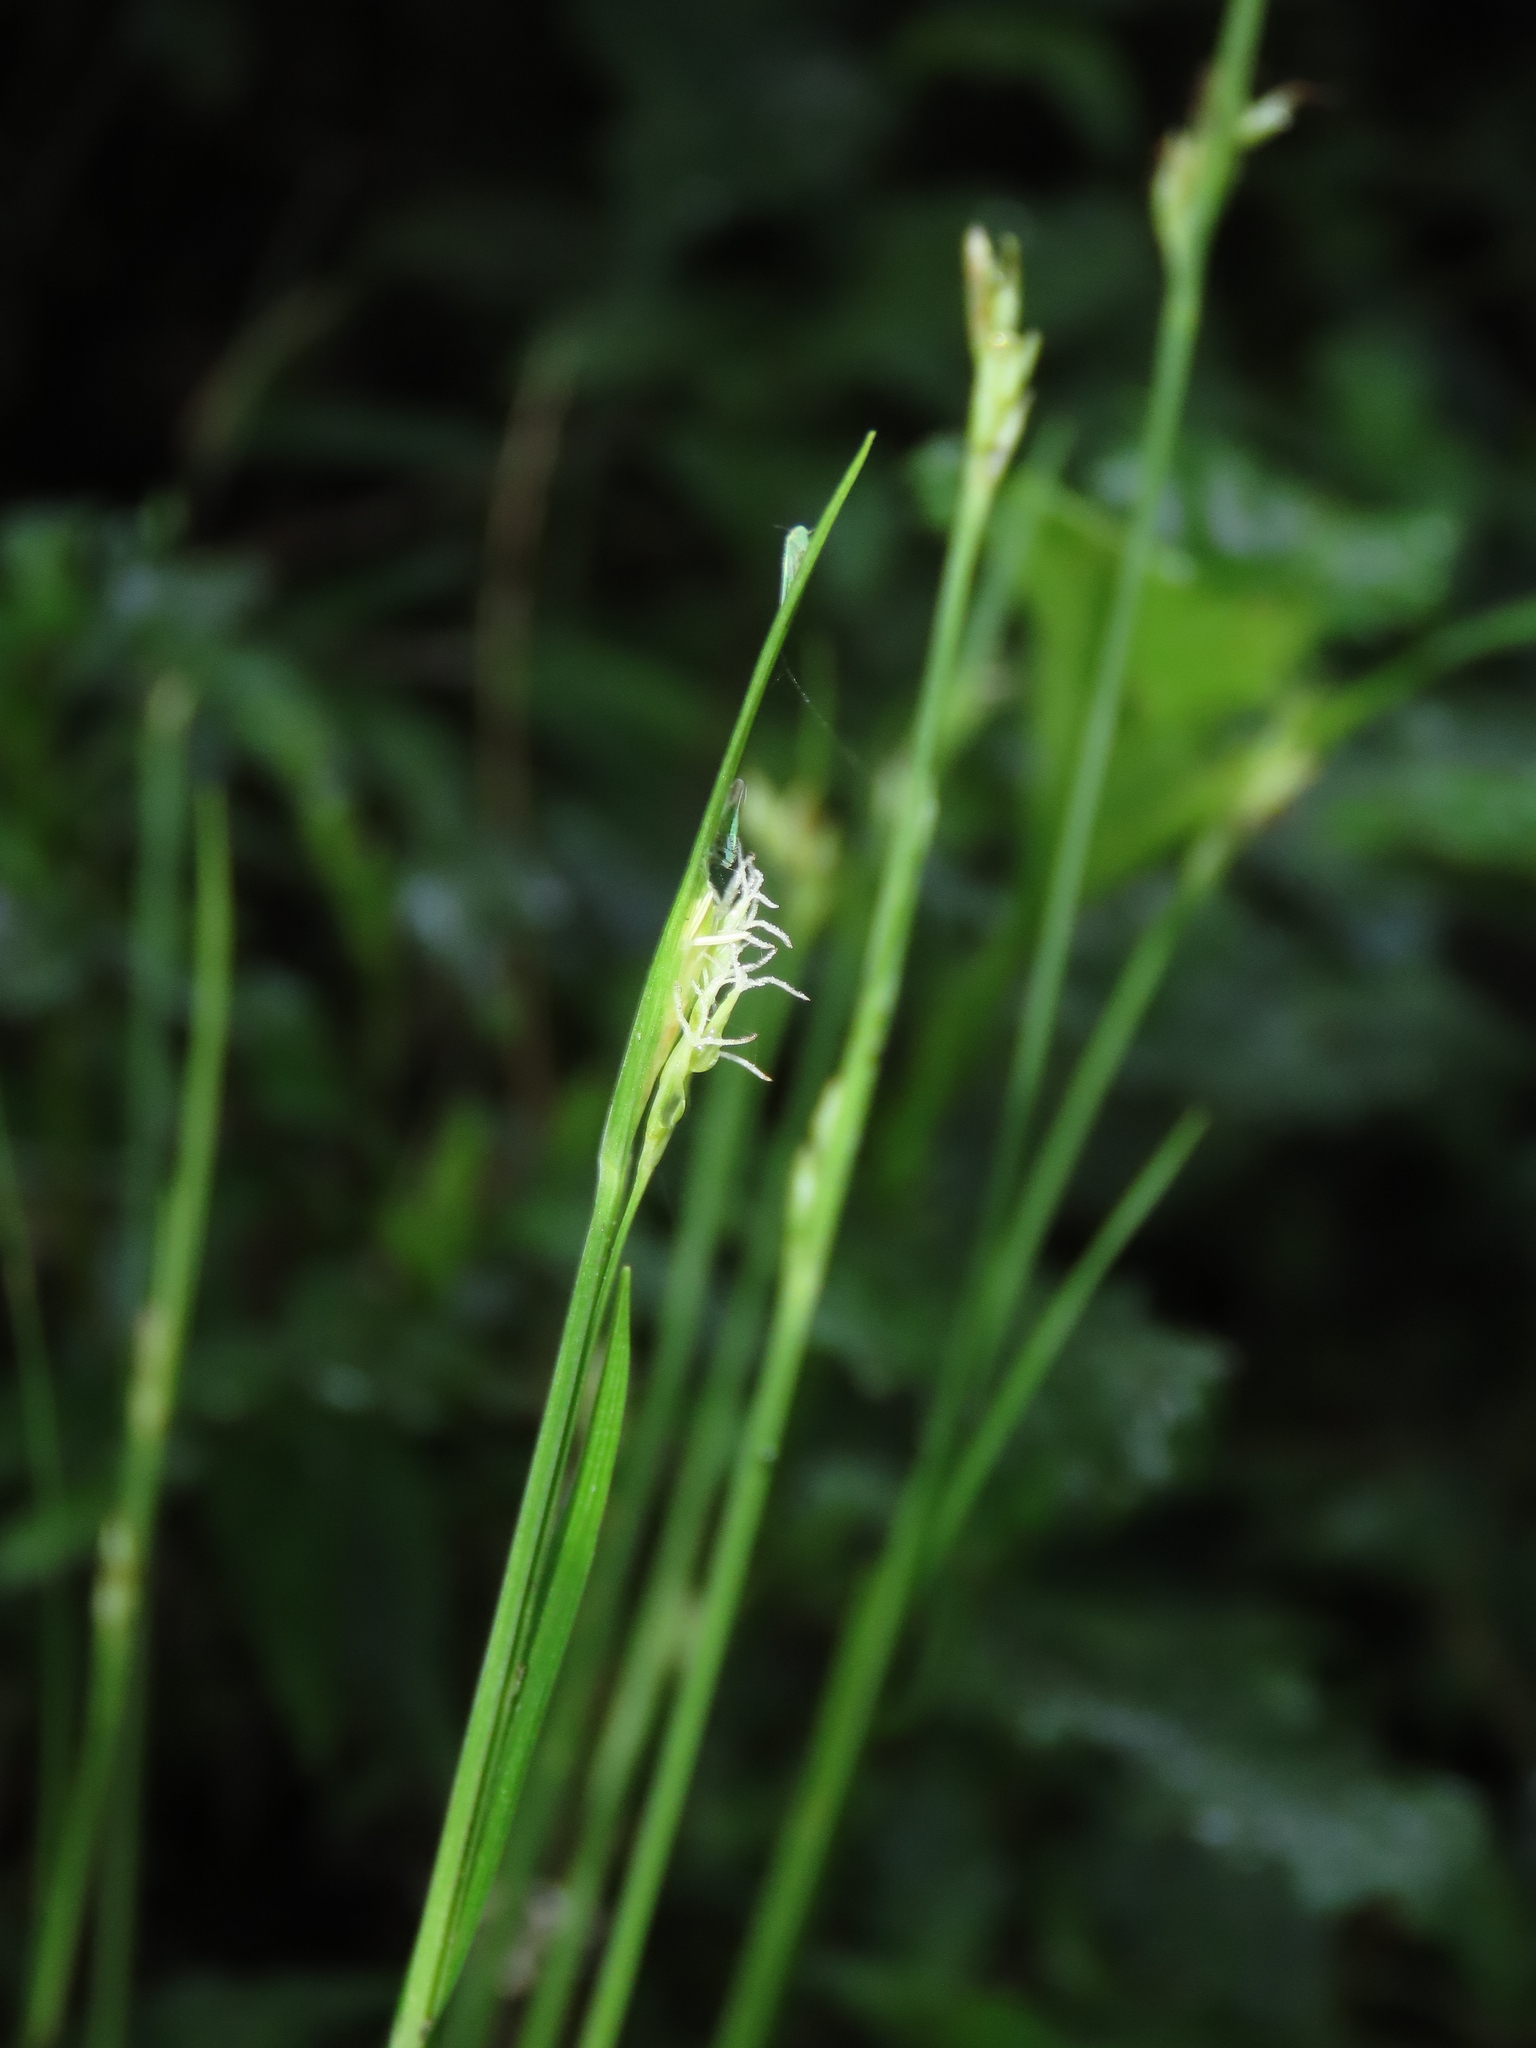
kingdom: Plantae
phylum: Tracheophyta
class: Liliopsida
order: Poales
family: Cyperaceae
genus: Carex
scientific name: Carex arisanensis
